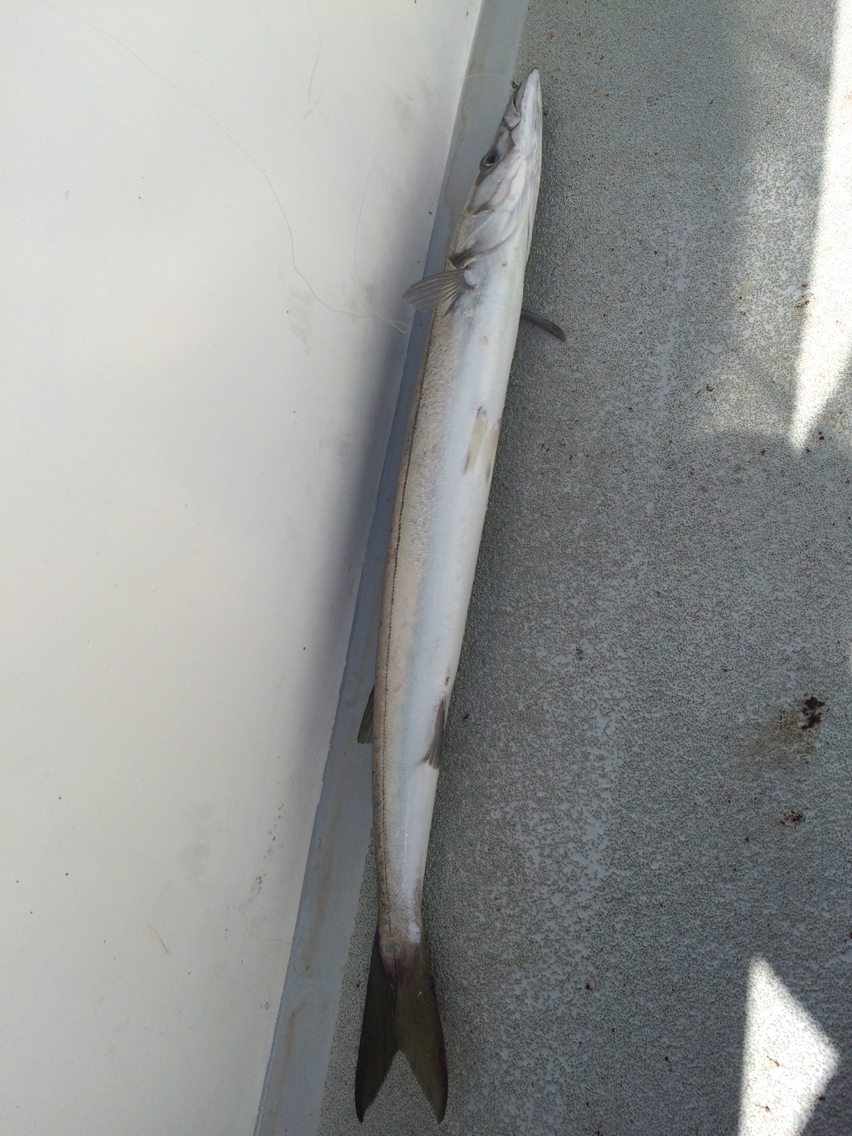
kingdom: Animalia
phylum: Chordata
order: Perciformes
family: Sphyraenidae
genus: Sphyraena
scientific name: Sphyraena argentea
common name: Pacific barracuda
